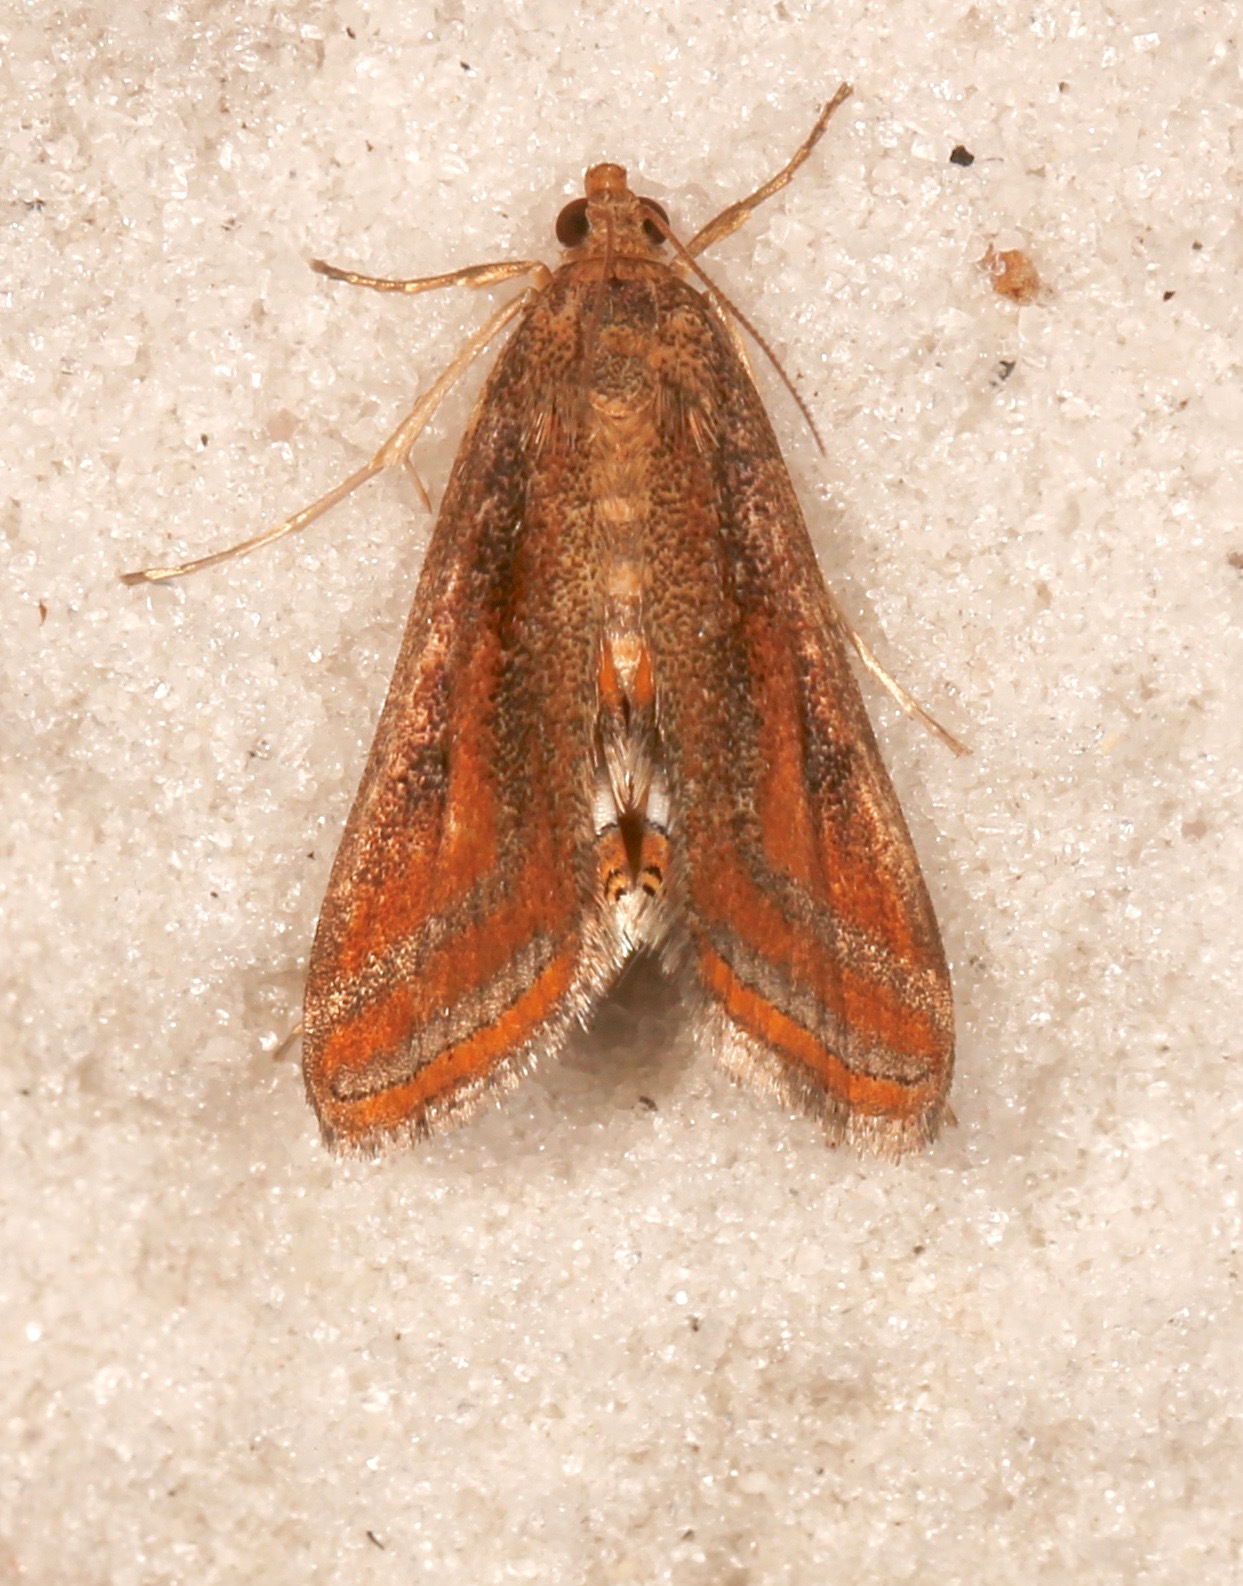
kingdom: Animalia
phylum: Arthropoda
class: Insecta
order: Lepidoptera
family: Crambidae
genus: Parapoynx
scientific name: Parapoynx seminealis
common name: Floating-heart waterlily leafcutter
